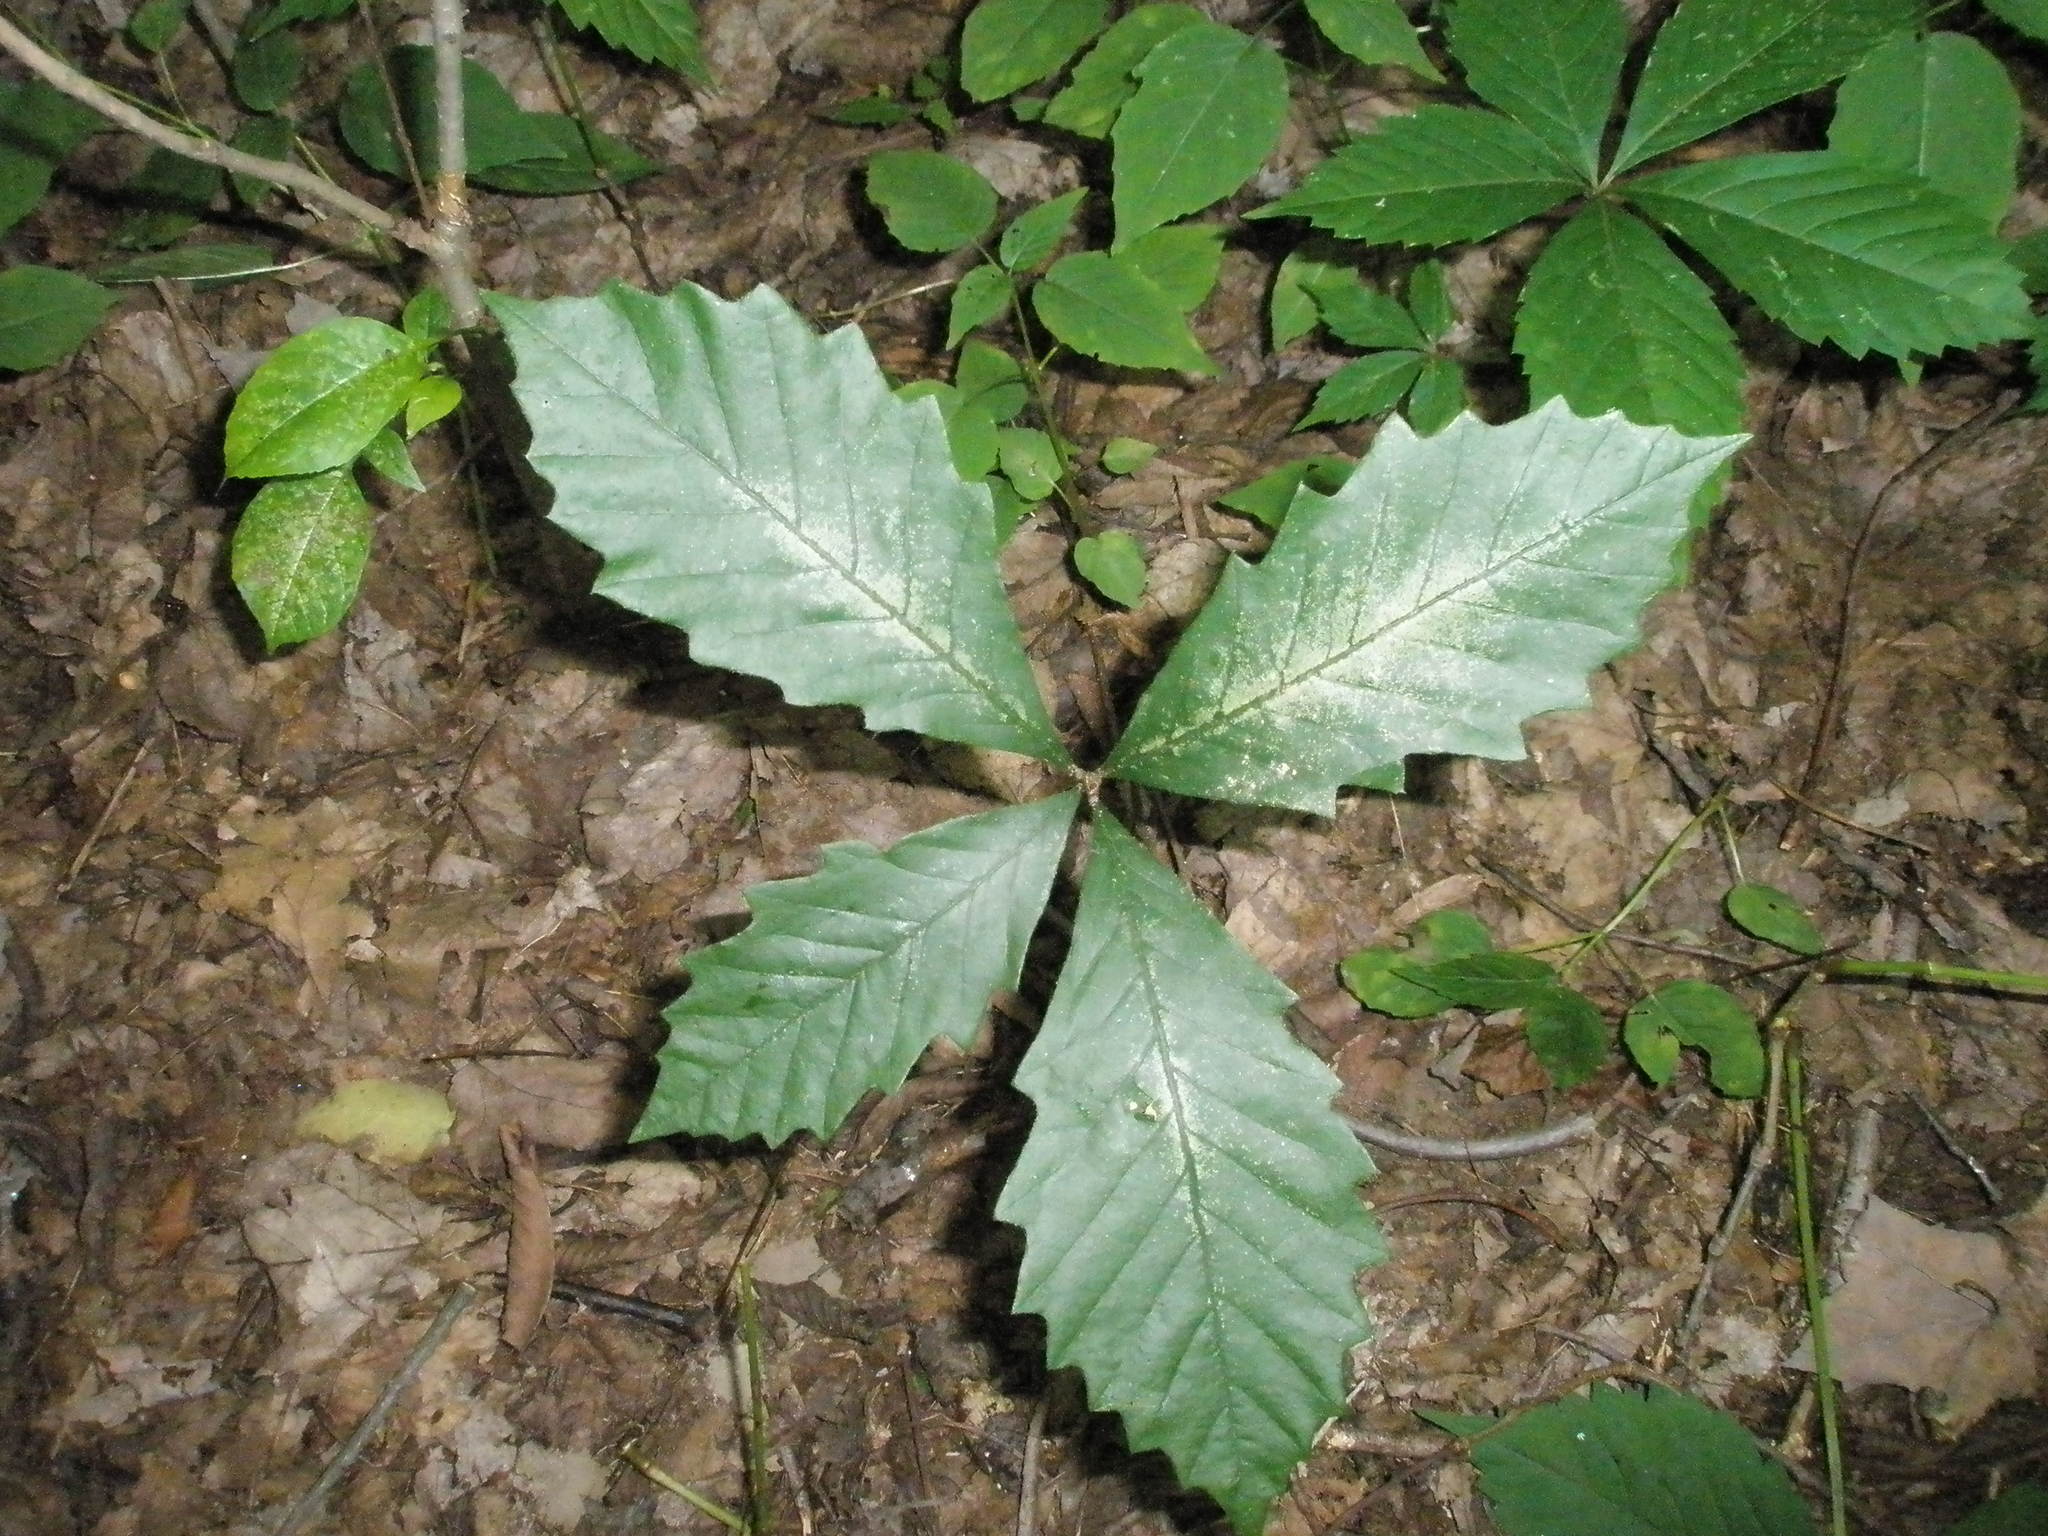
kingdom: Plantae
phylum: Tracheophyta
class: Magnoliopsida
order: Fagales
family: Fagaceae
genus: Quercus
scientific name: Quercus muehlenbergii
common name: Chinkapin oak
